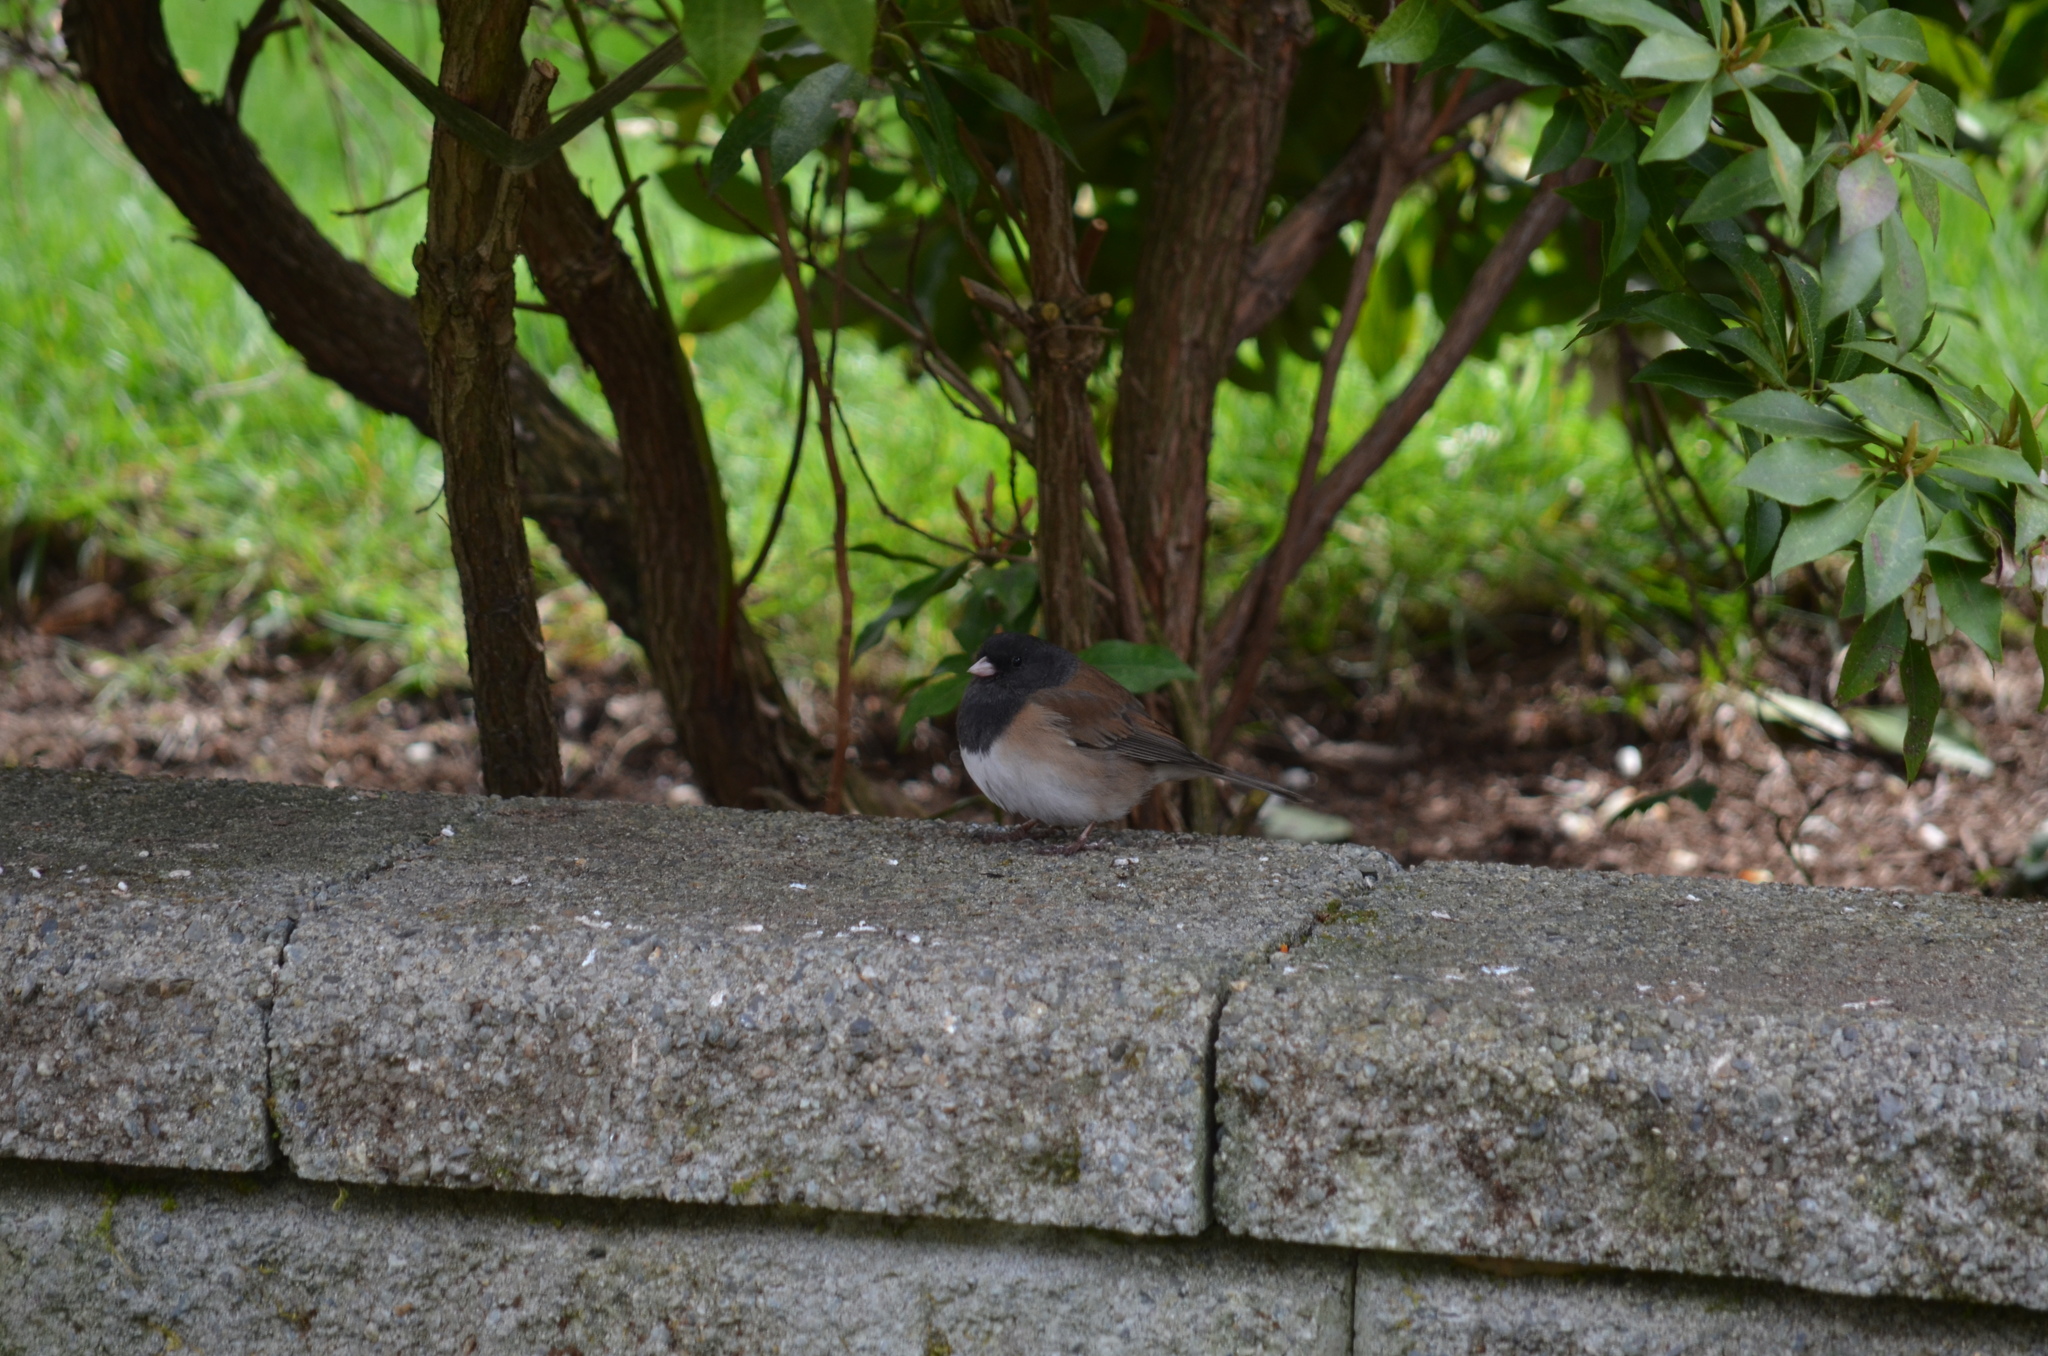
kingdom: Animalia
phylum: Chordata
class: Aves
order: Passeriformes
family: Passerellidae
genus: Junco
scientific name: Junco hyemalis
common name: Dark-eyed junco
